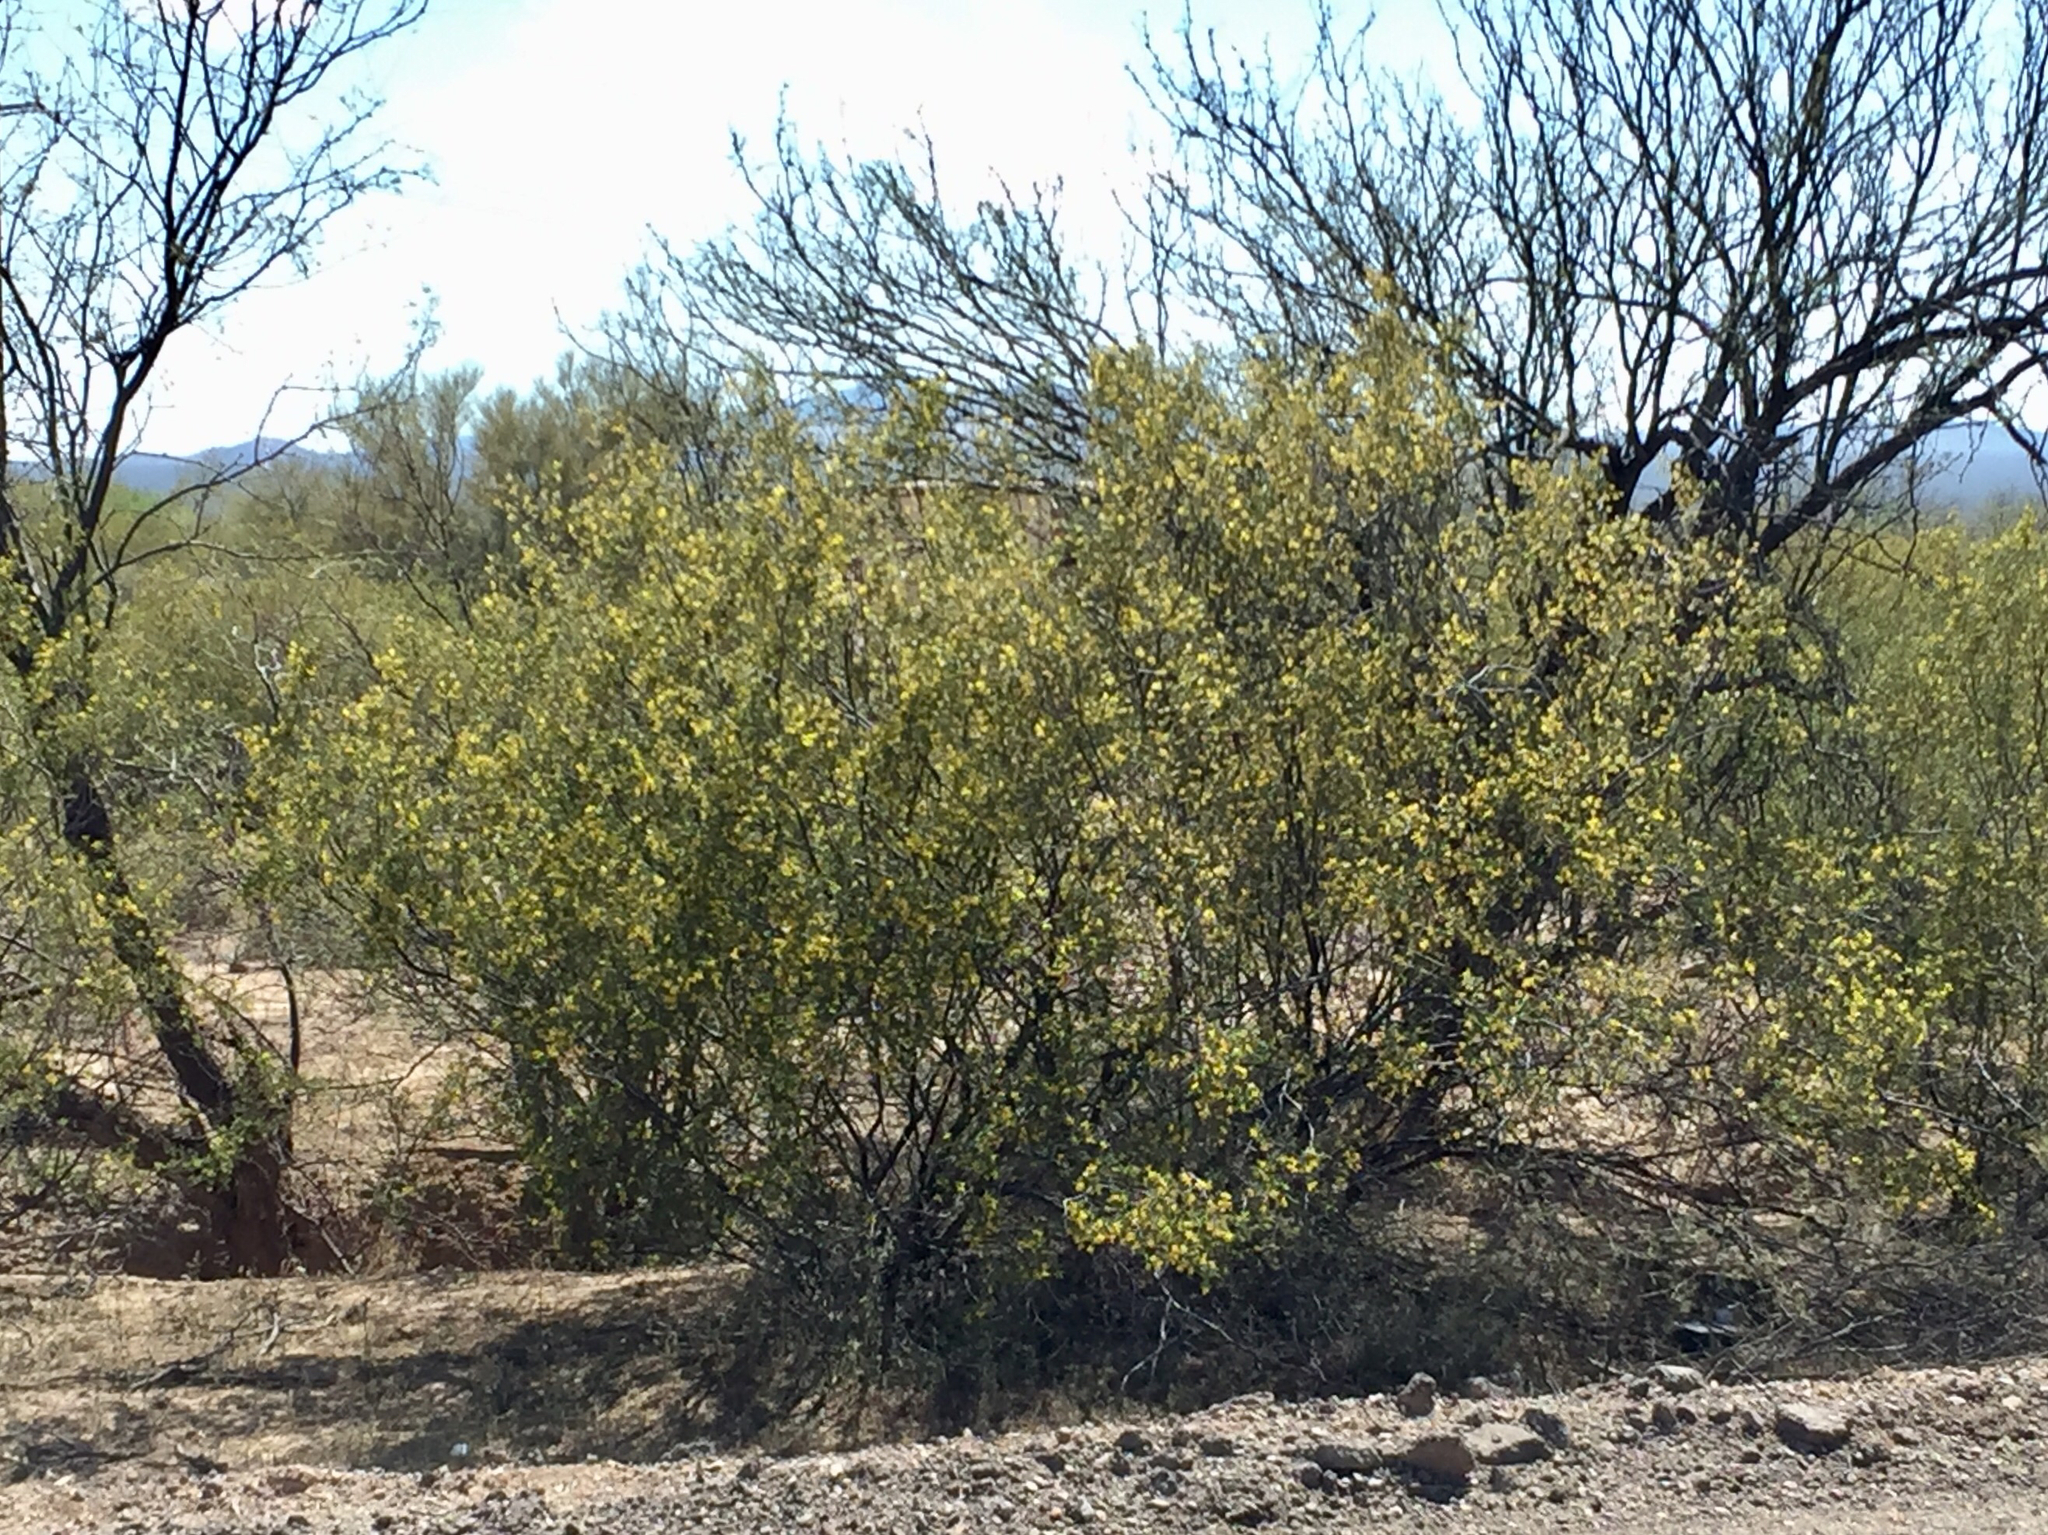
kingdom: Plantae
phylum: Tracheophyta
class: Magnoliopsida
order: Zygophyllales
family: Zygophyllaceae
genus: Larrea
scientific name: Larrea tridentata
